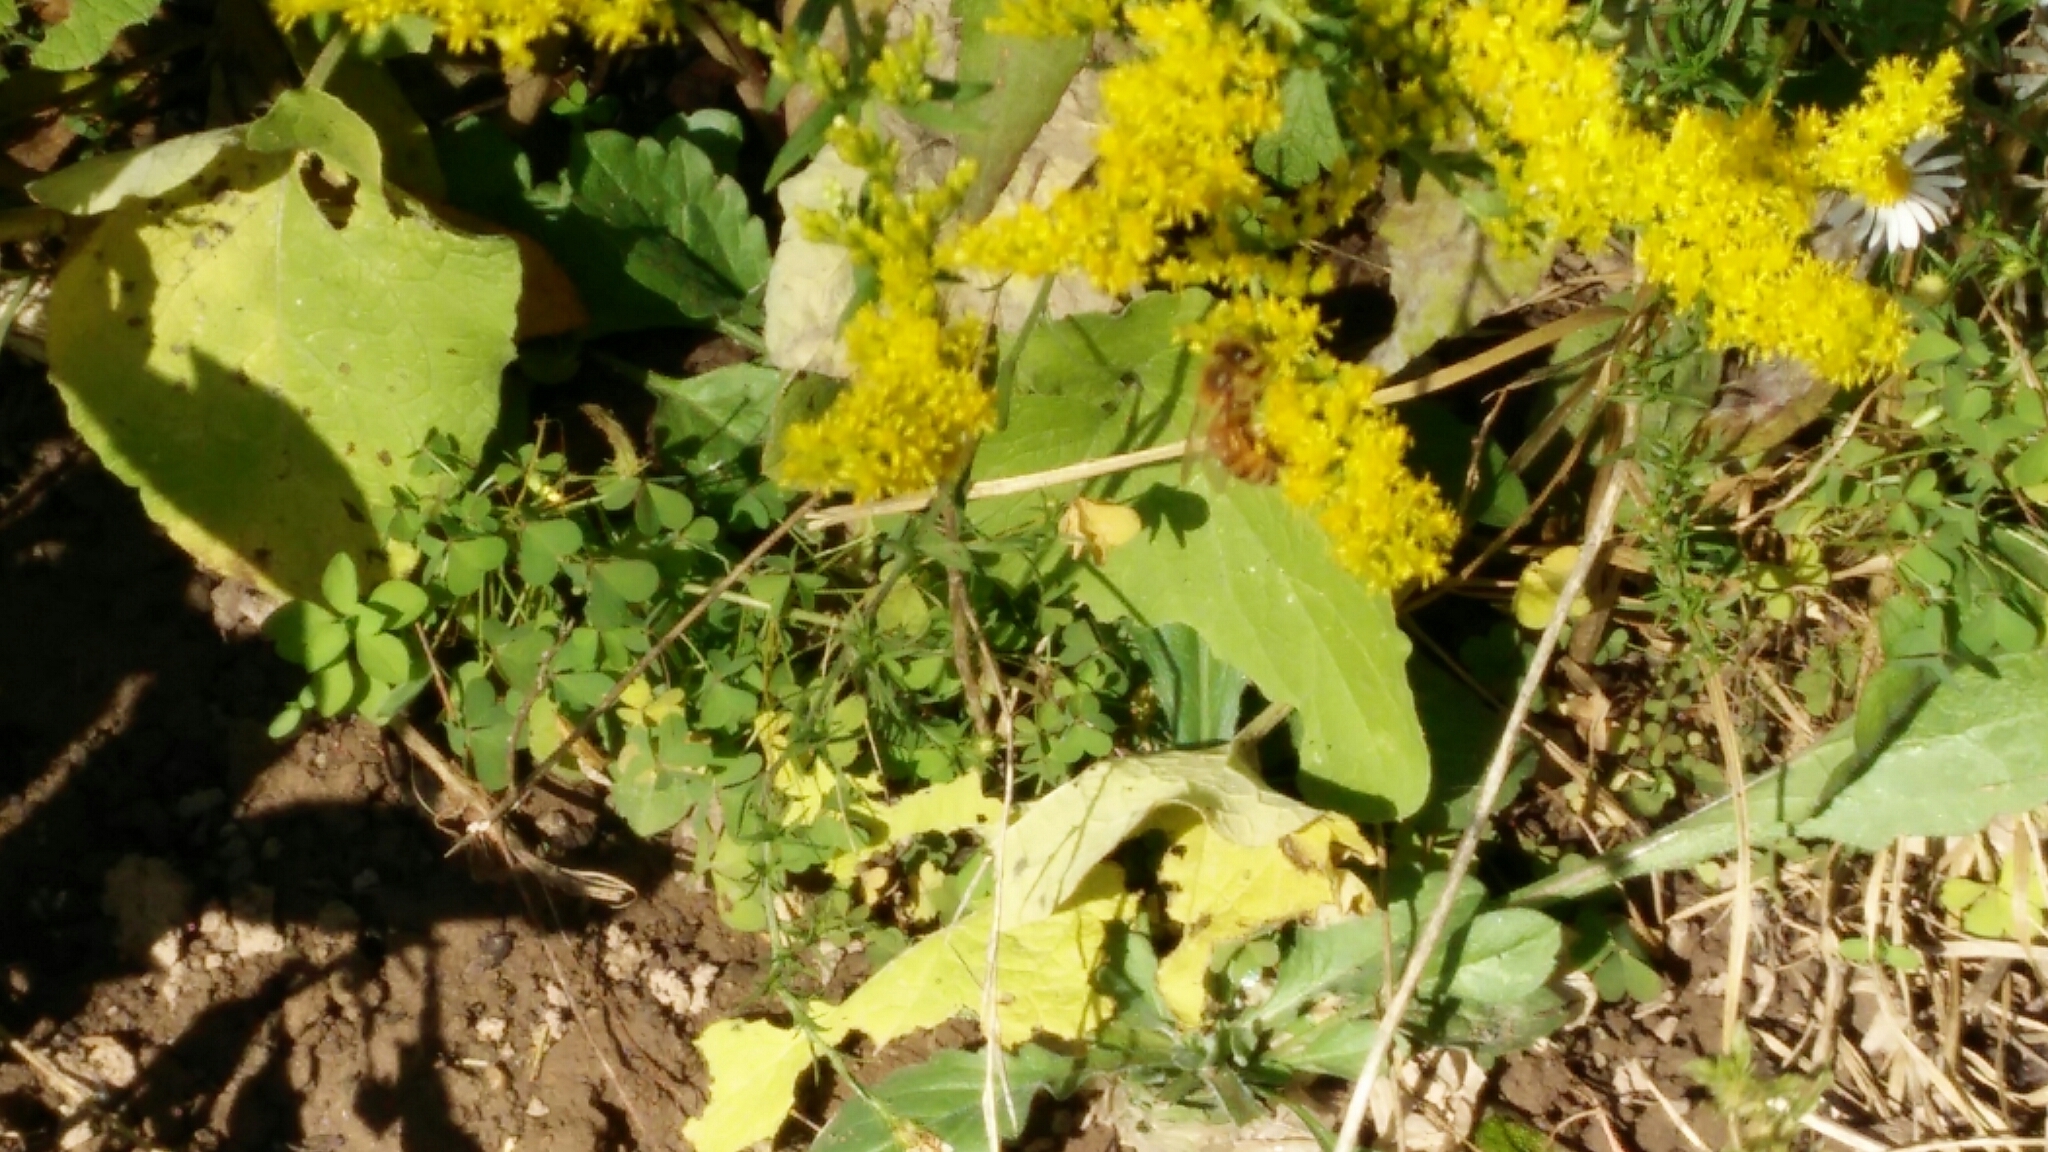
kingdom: Animalia
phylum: Arthropoda
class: Insecta
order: Hymenoptera
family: Apidae
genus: Apis
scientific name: Apis mellifera
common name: Honey bee
